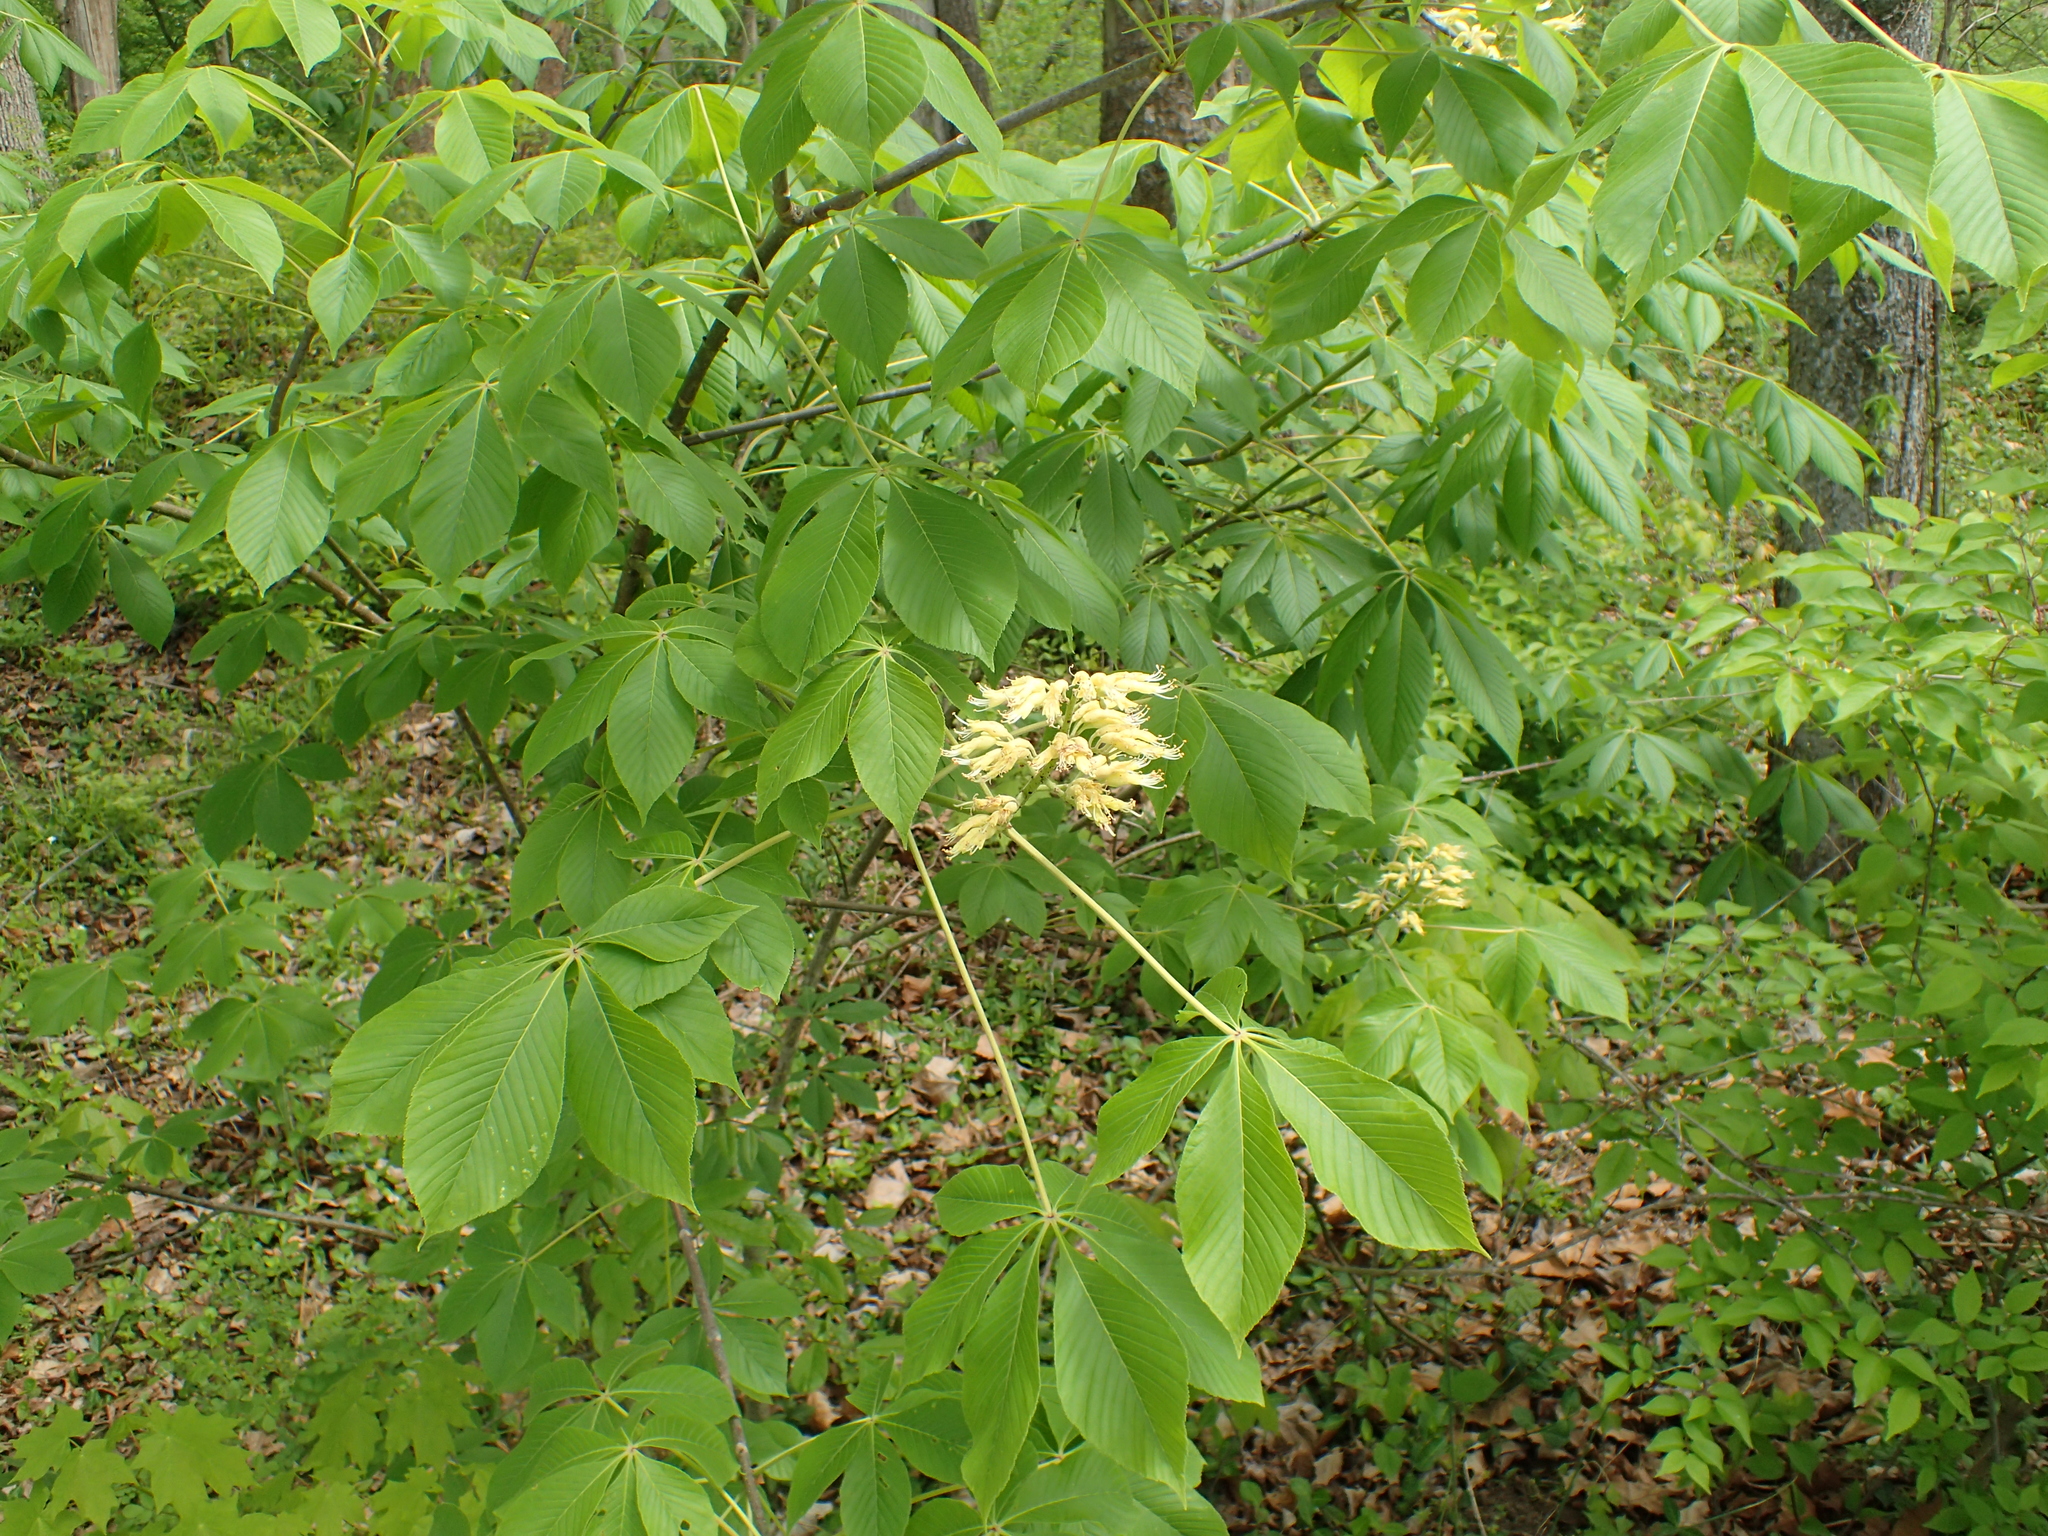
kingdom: Plantae
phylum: Tracheophyta
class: Magnoliopsida
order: Sapindales
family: Sapindaceae
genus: Aesculus
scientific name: Aesculus glabra
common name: Ohio buckeye
